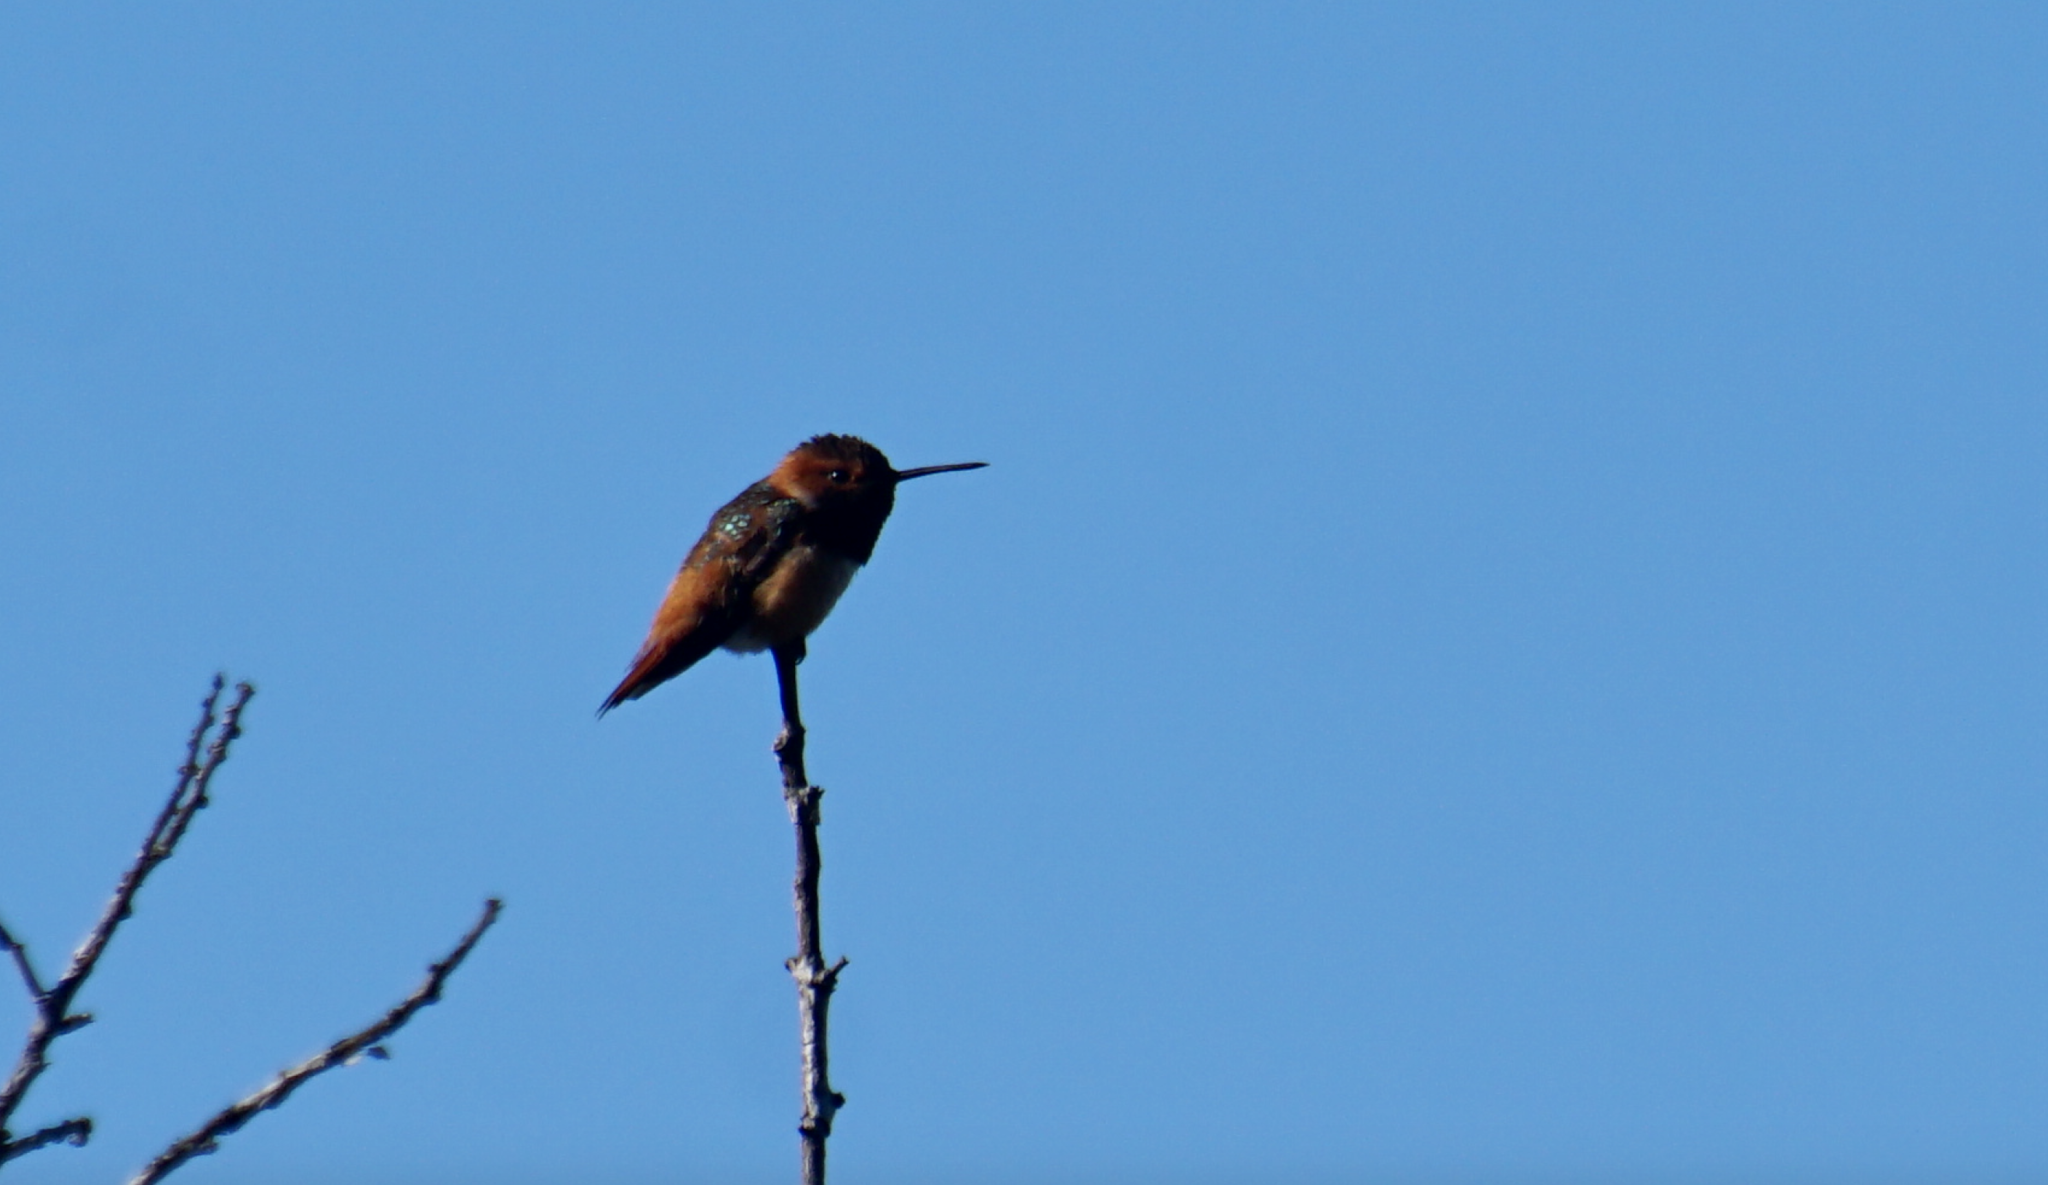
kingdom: Animalia
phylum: Chordata
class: Aves
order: Apodiformes
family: Trochilidae
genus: Selasphorus
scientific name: Selasphorus sasin
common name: Allen's hummingbird
